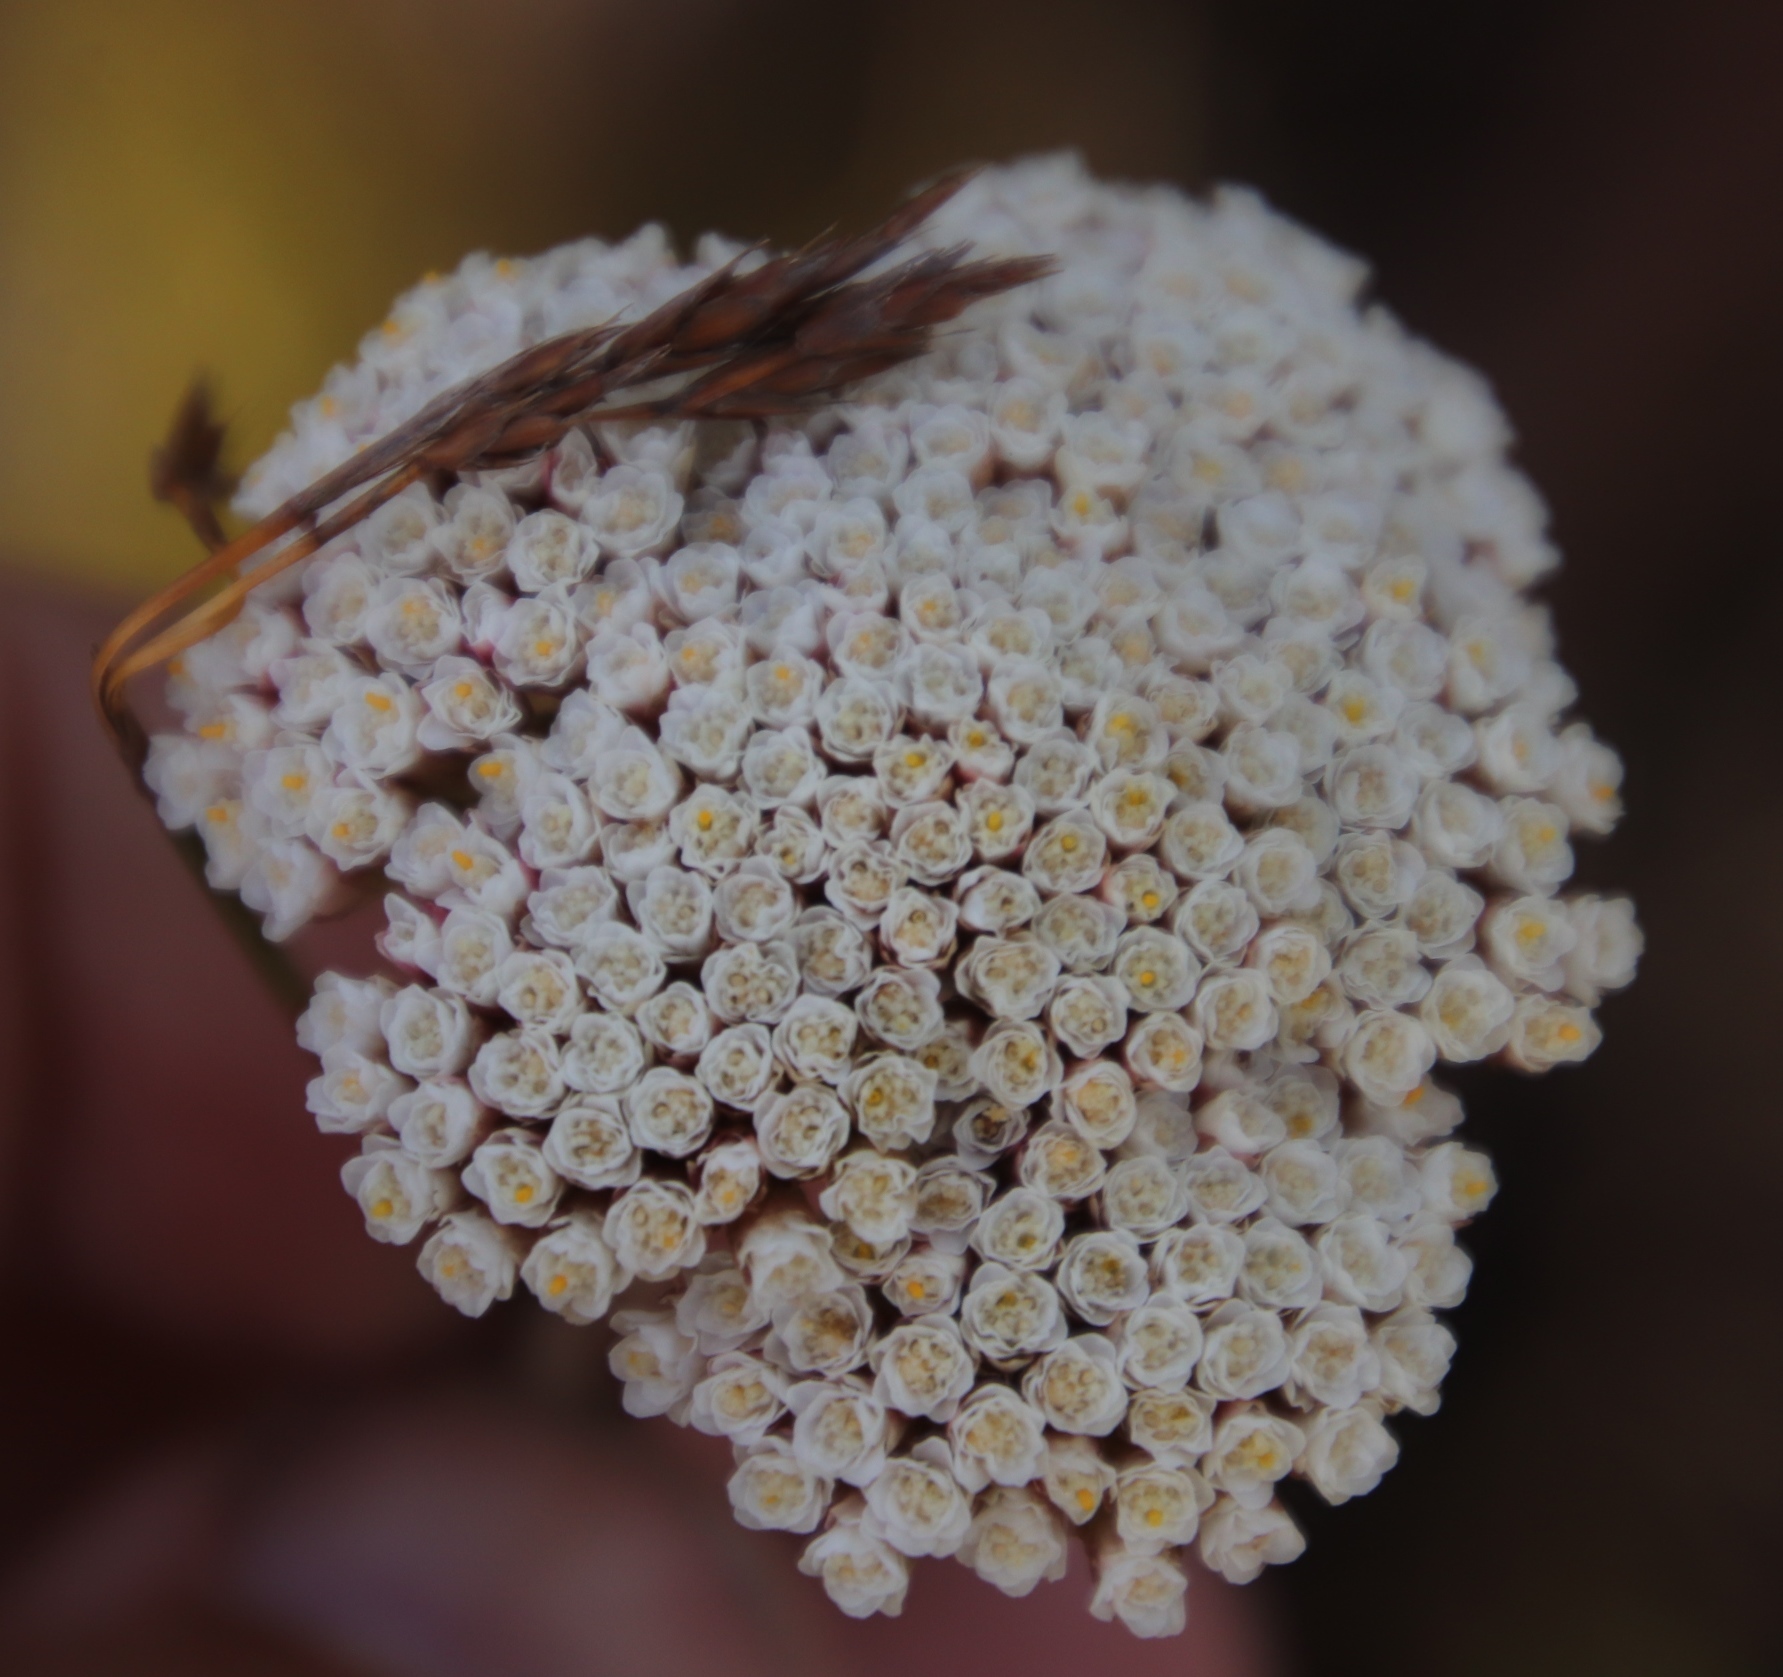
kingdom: Plantae
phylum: Tracheophyta
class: Magnoliopsida
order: Asterales
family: Asteraceae
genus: Anaxeton
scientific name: Anaxeton arborescens
